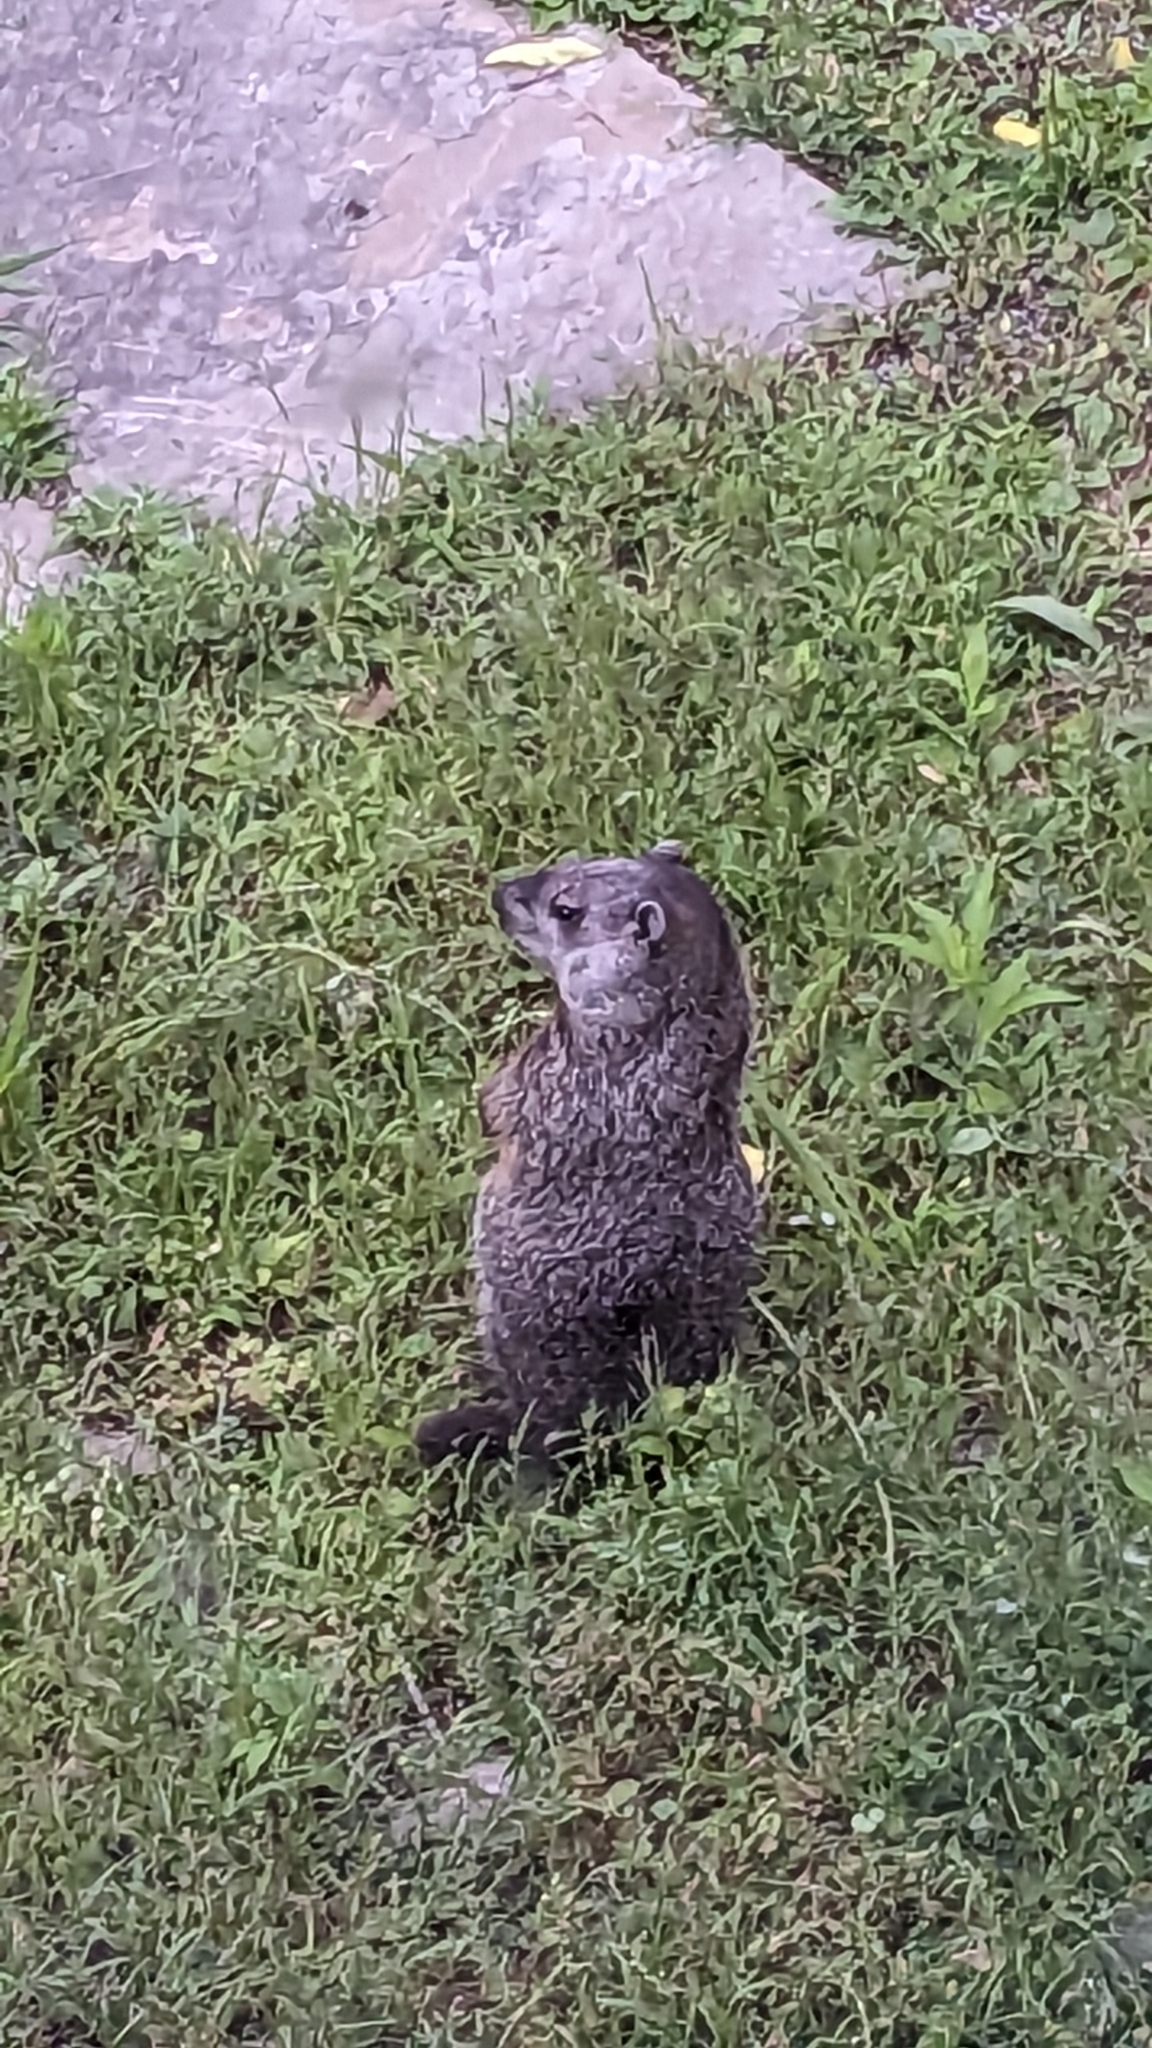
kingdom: Animalia
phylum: Chordata
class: Mammalia
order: Rodentia
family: Sciuridae
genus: Marmota
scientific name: Marmota monax
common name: Groundhog
